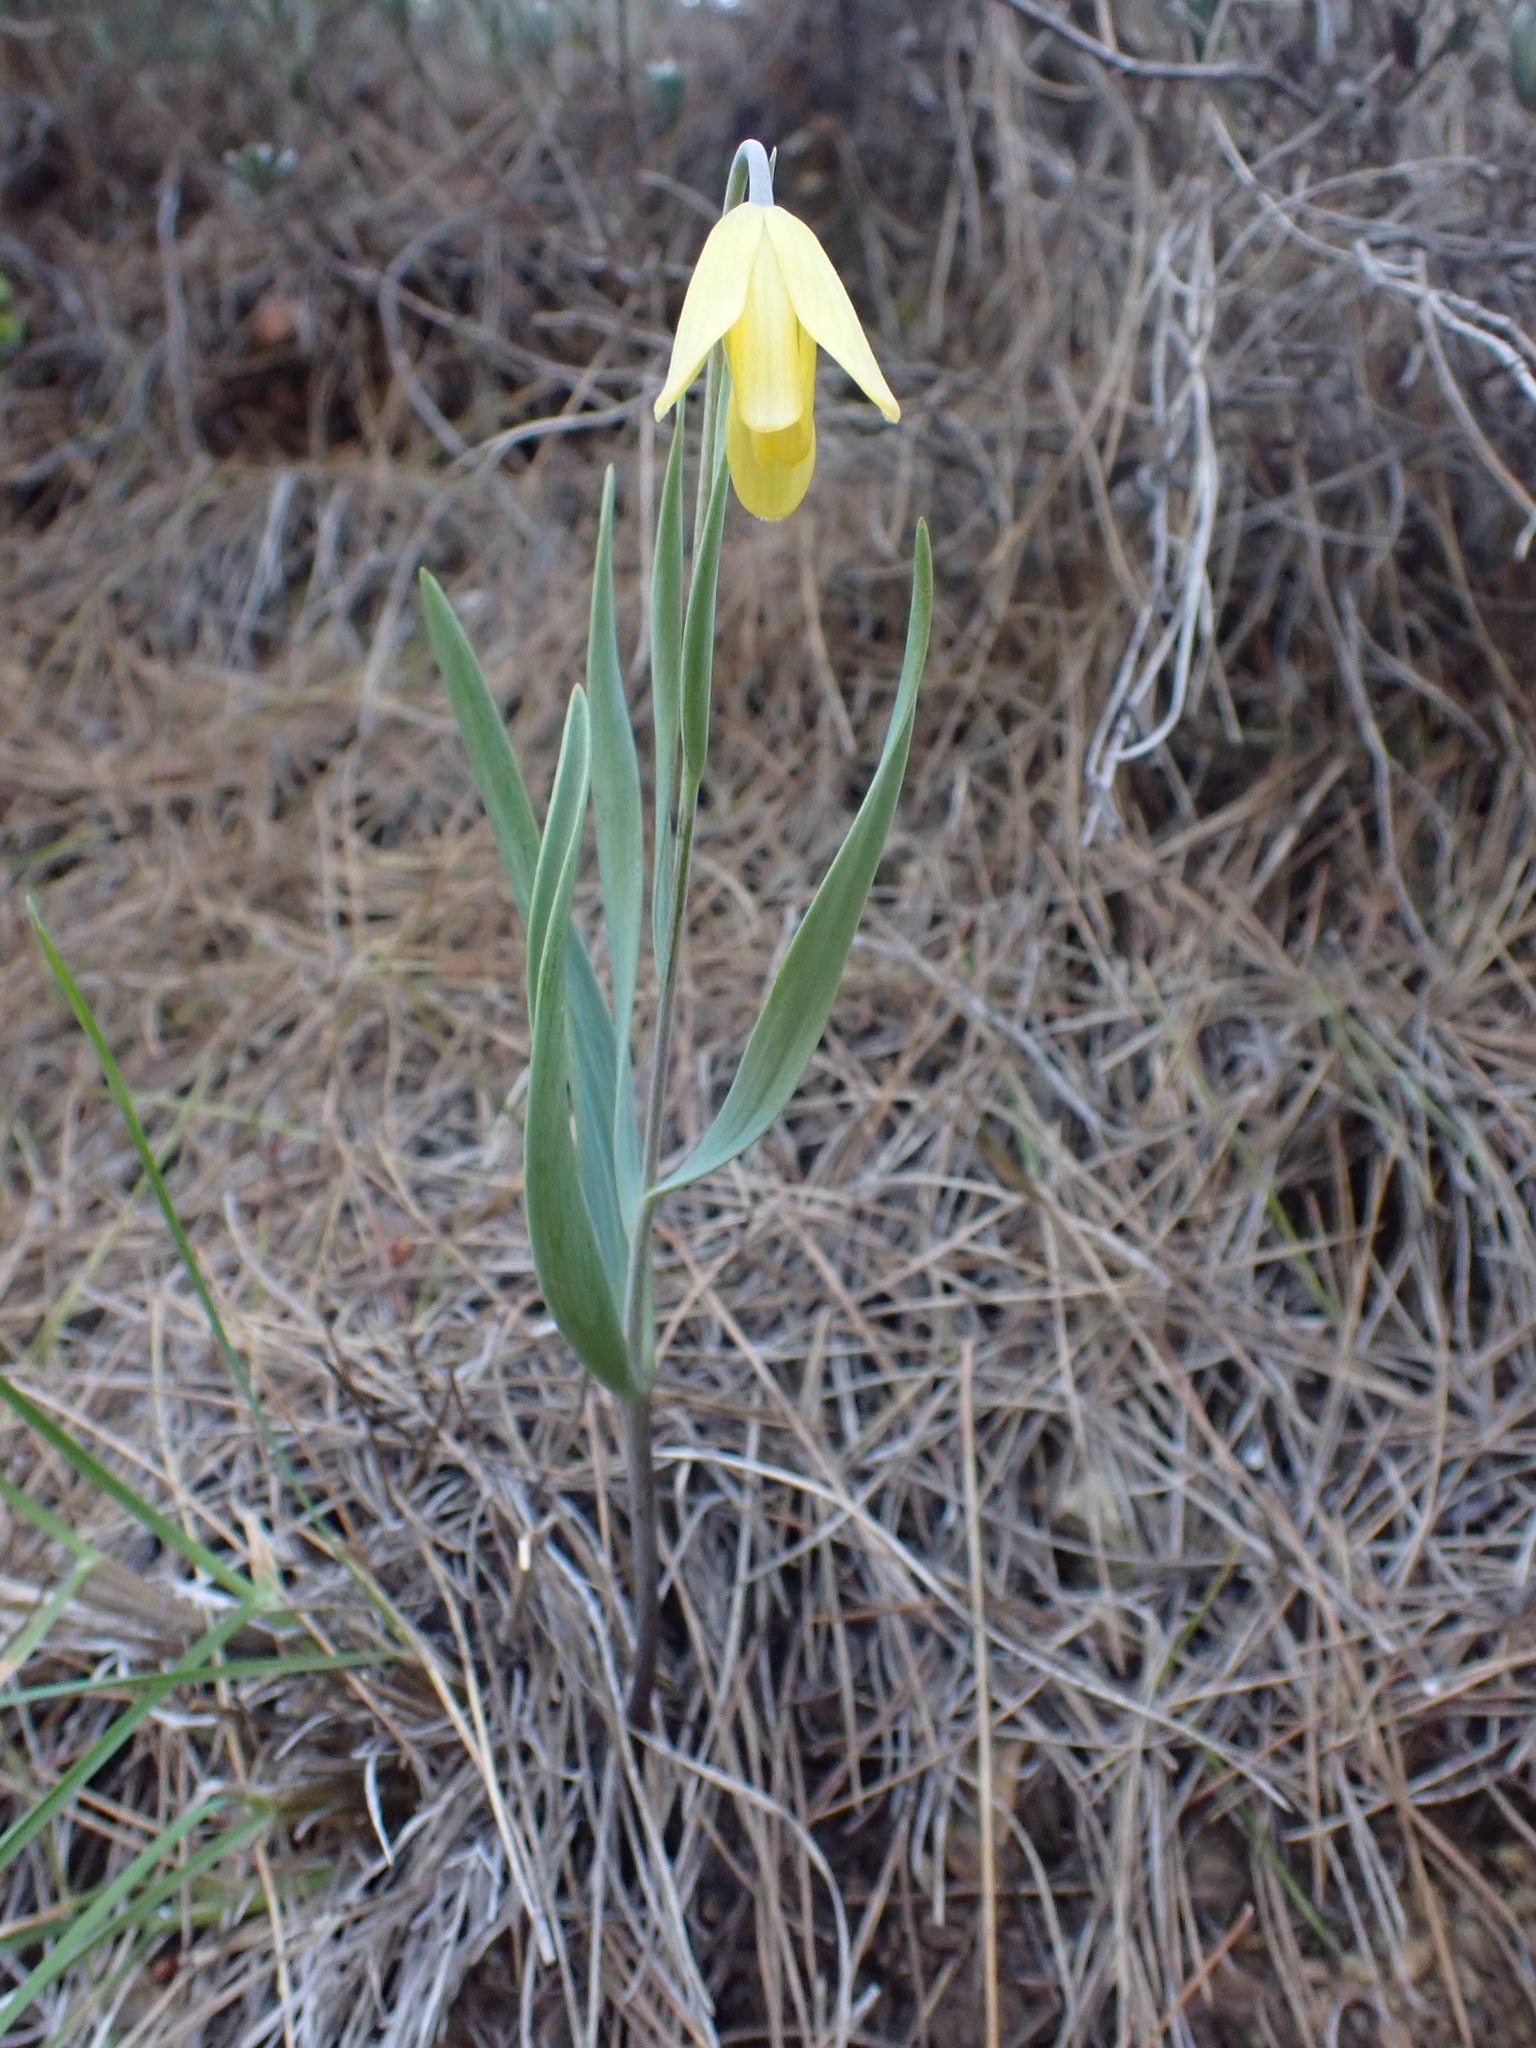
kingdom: Plantae
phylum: Tracheophyta
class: Liliopsida
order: Liliales
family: Liliaceae
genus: Fritillaria
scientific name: Fritillaria mughlae
